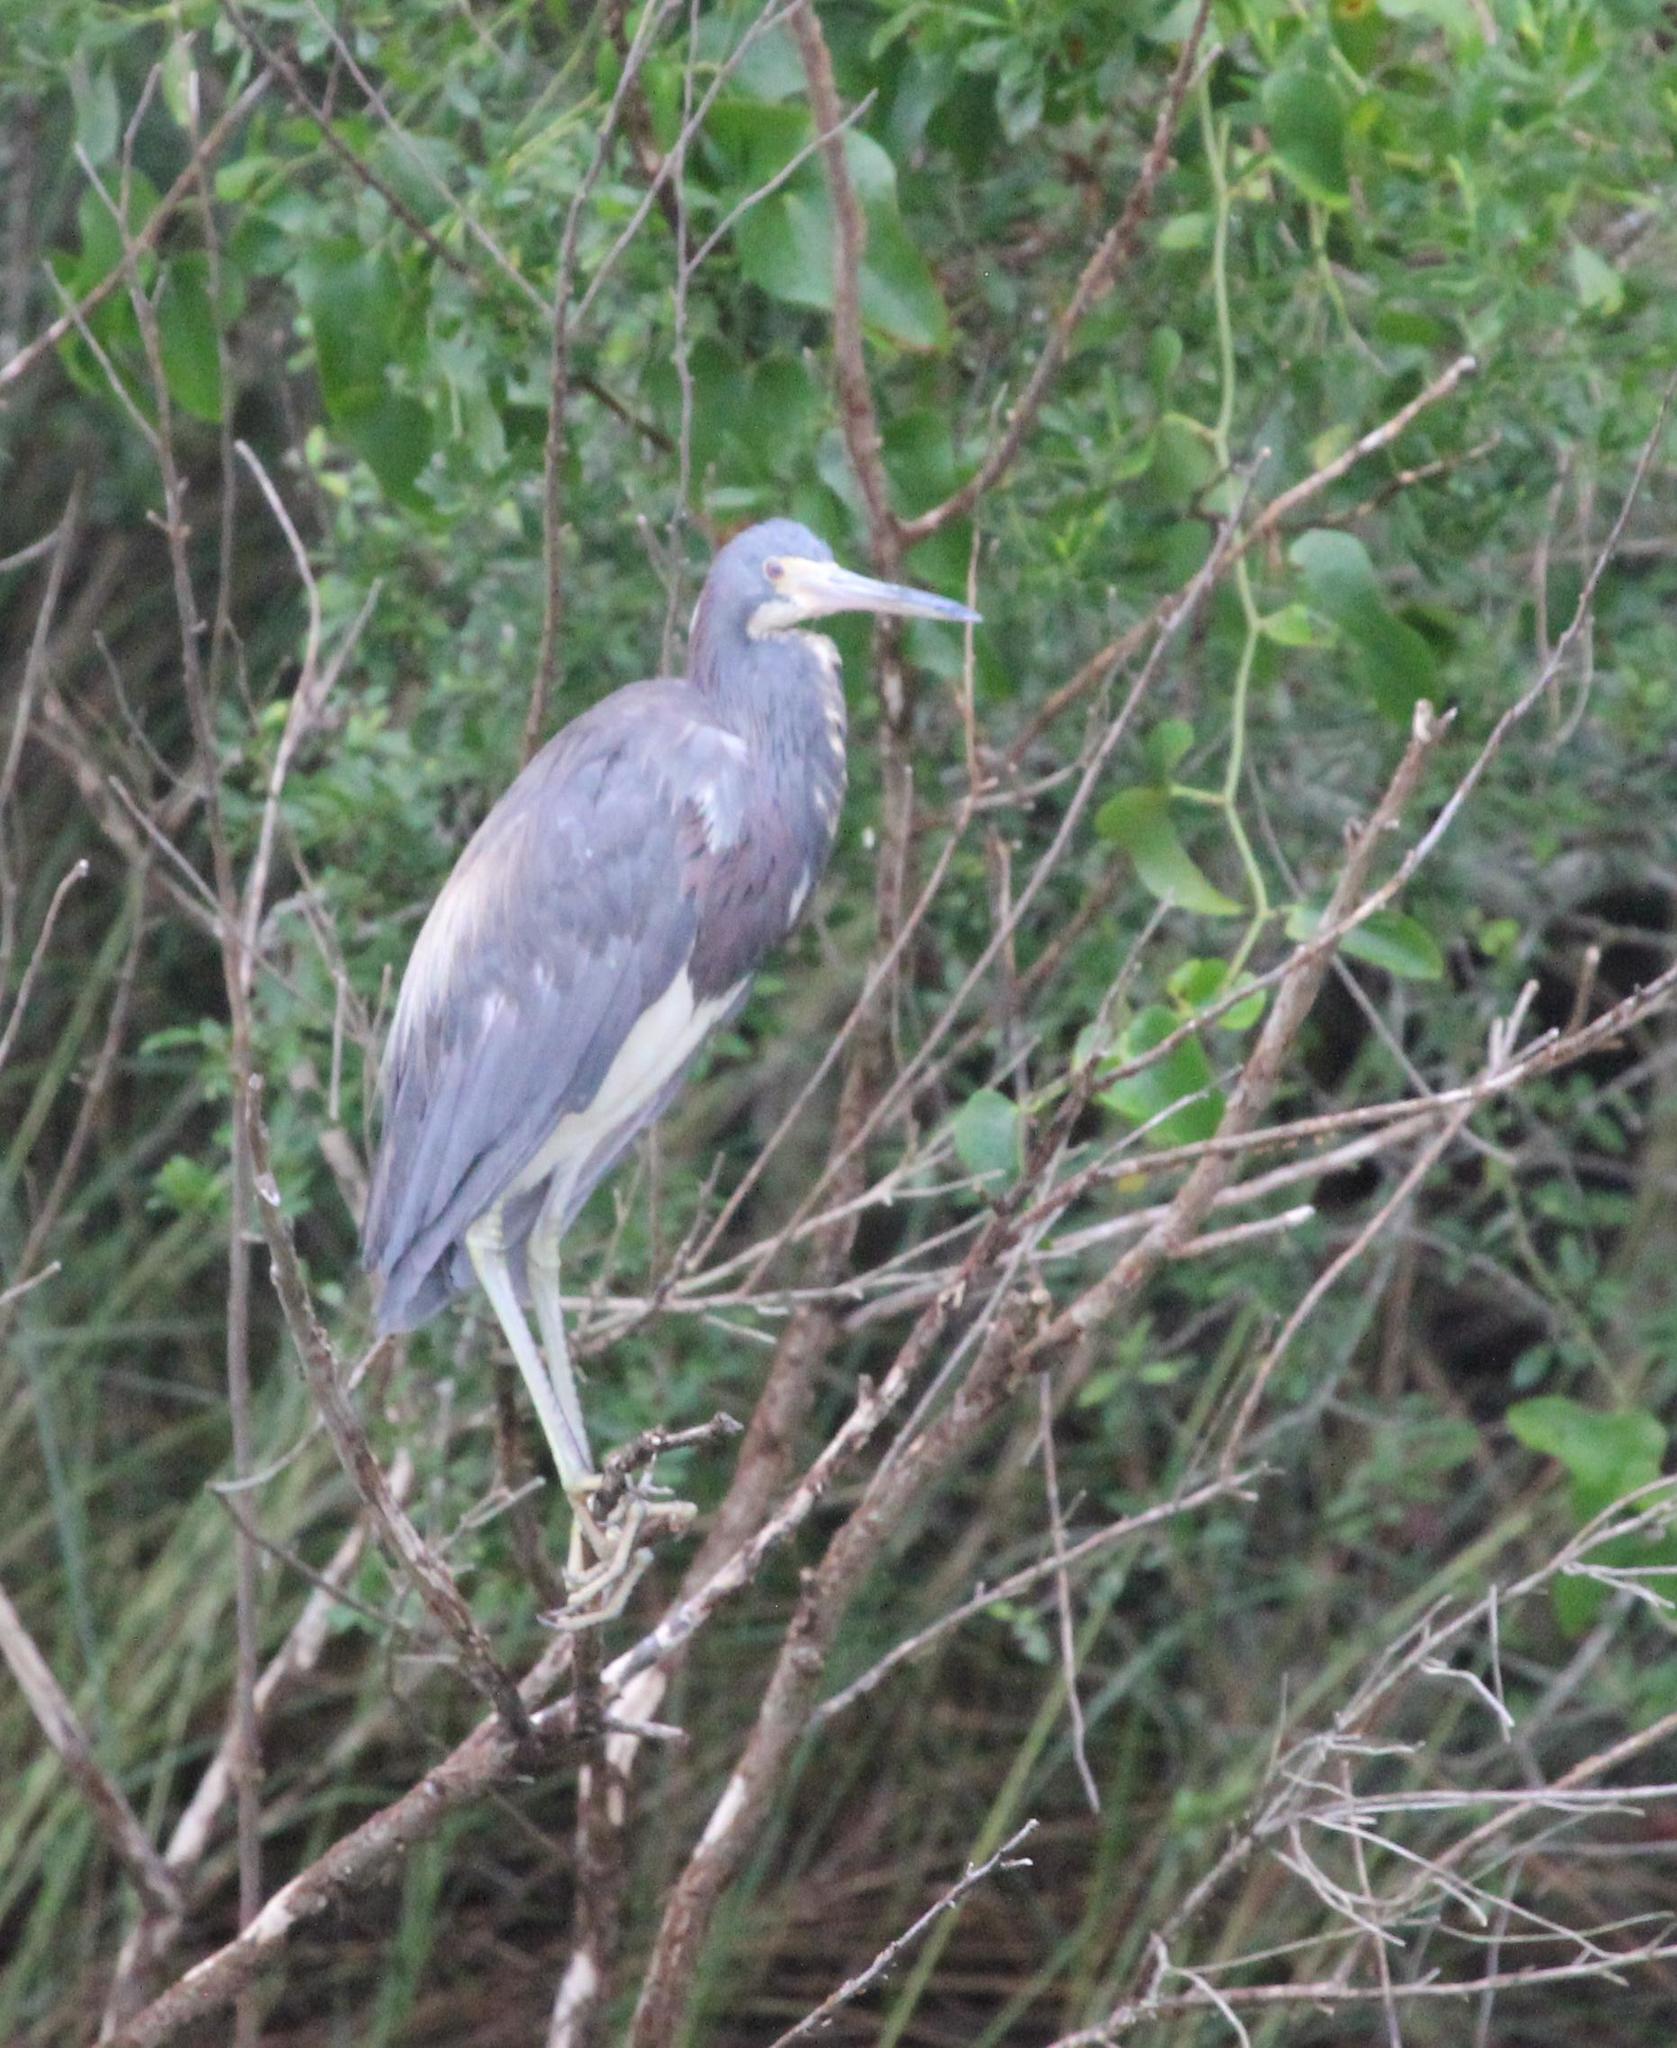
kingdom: Animalia
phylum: Chordata
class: Aves
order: Pelecaniformes
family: Ardeidae
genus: Egretta
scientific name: Egretta tricolor
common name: Tricolored heron
